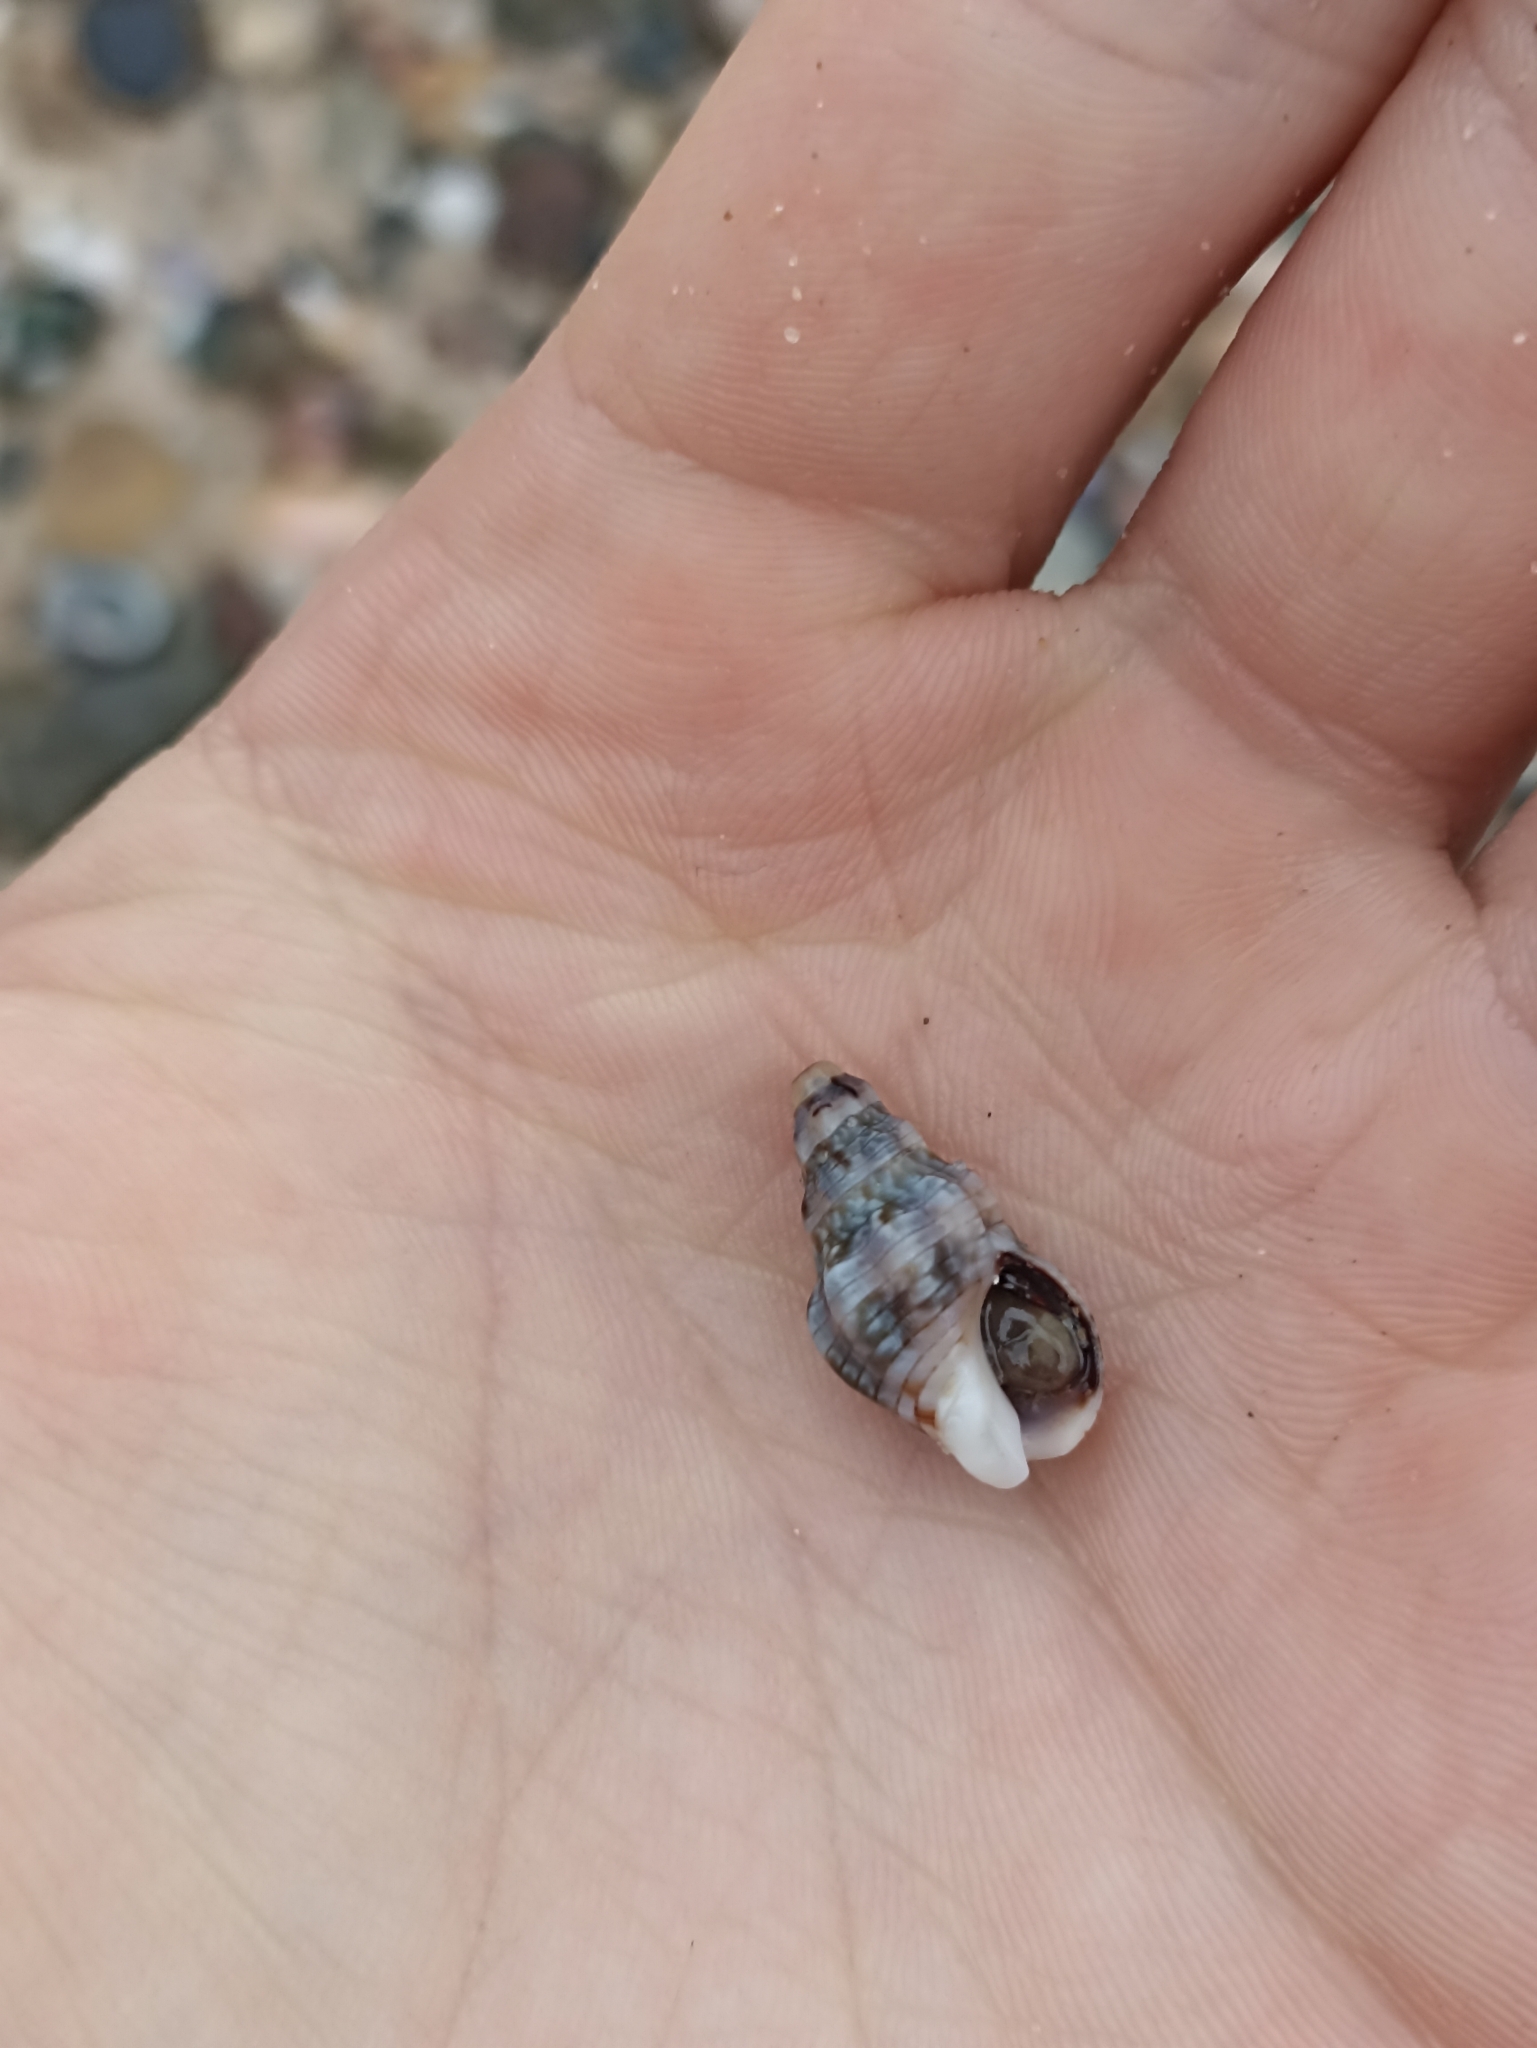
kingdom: Animalia
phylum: Mollusca
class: Gastropoda
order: Neogastropoda
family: Cominellidae
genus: Cominella
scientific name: Cominella eburnea
